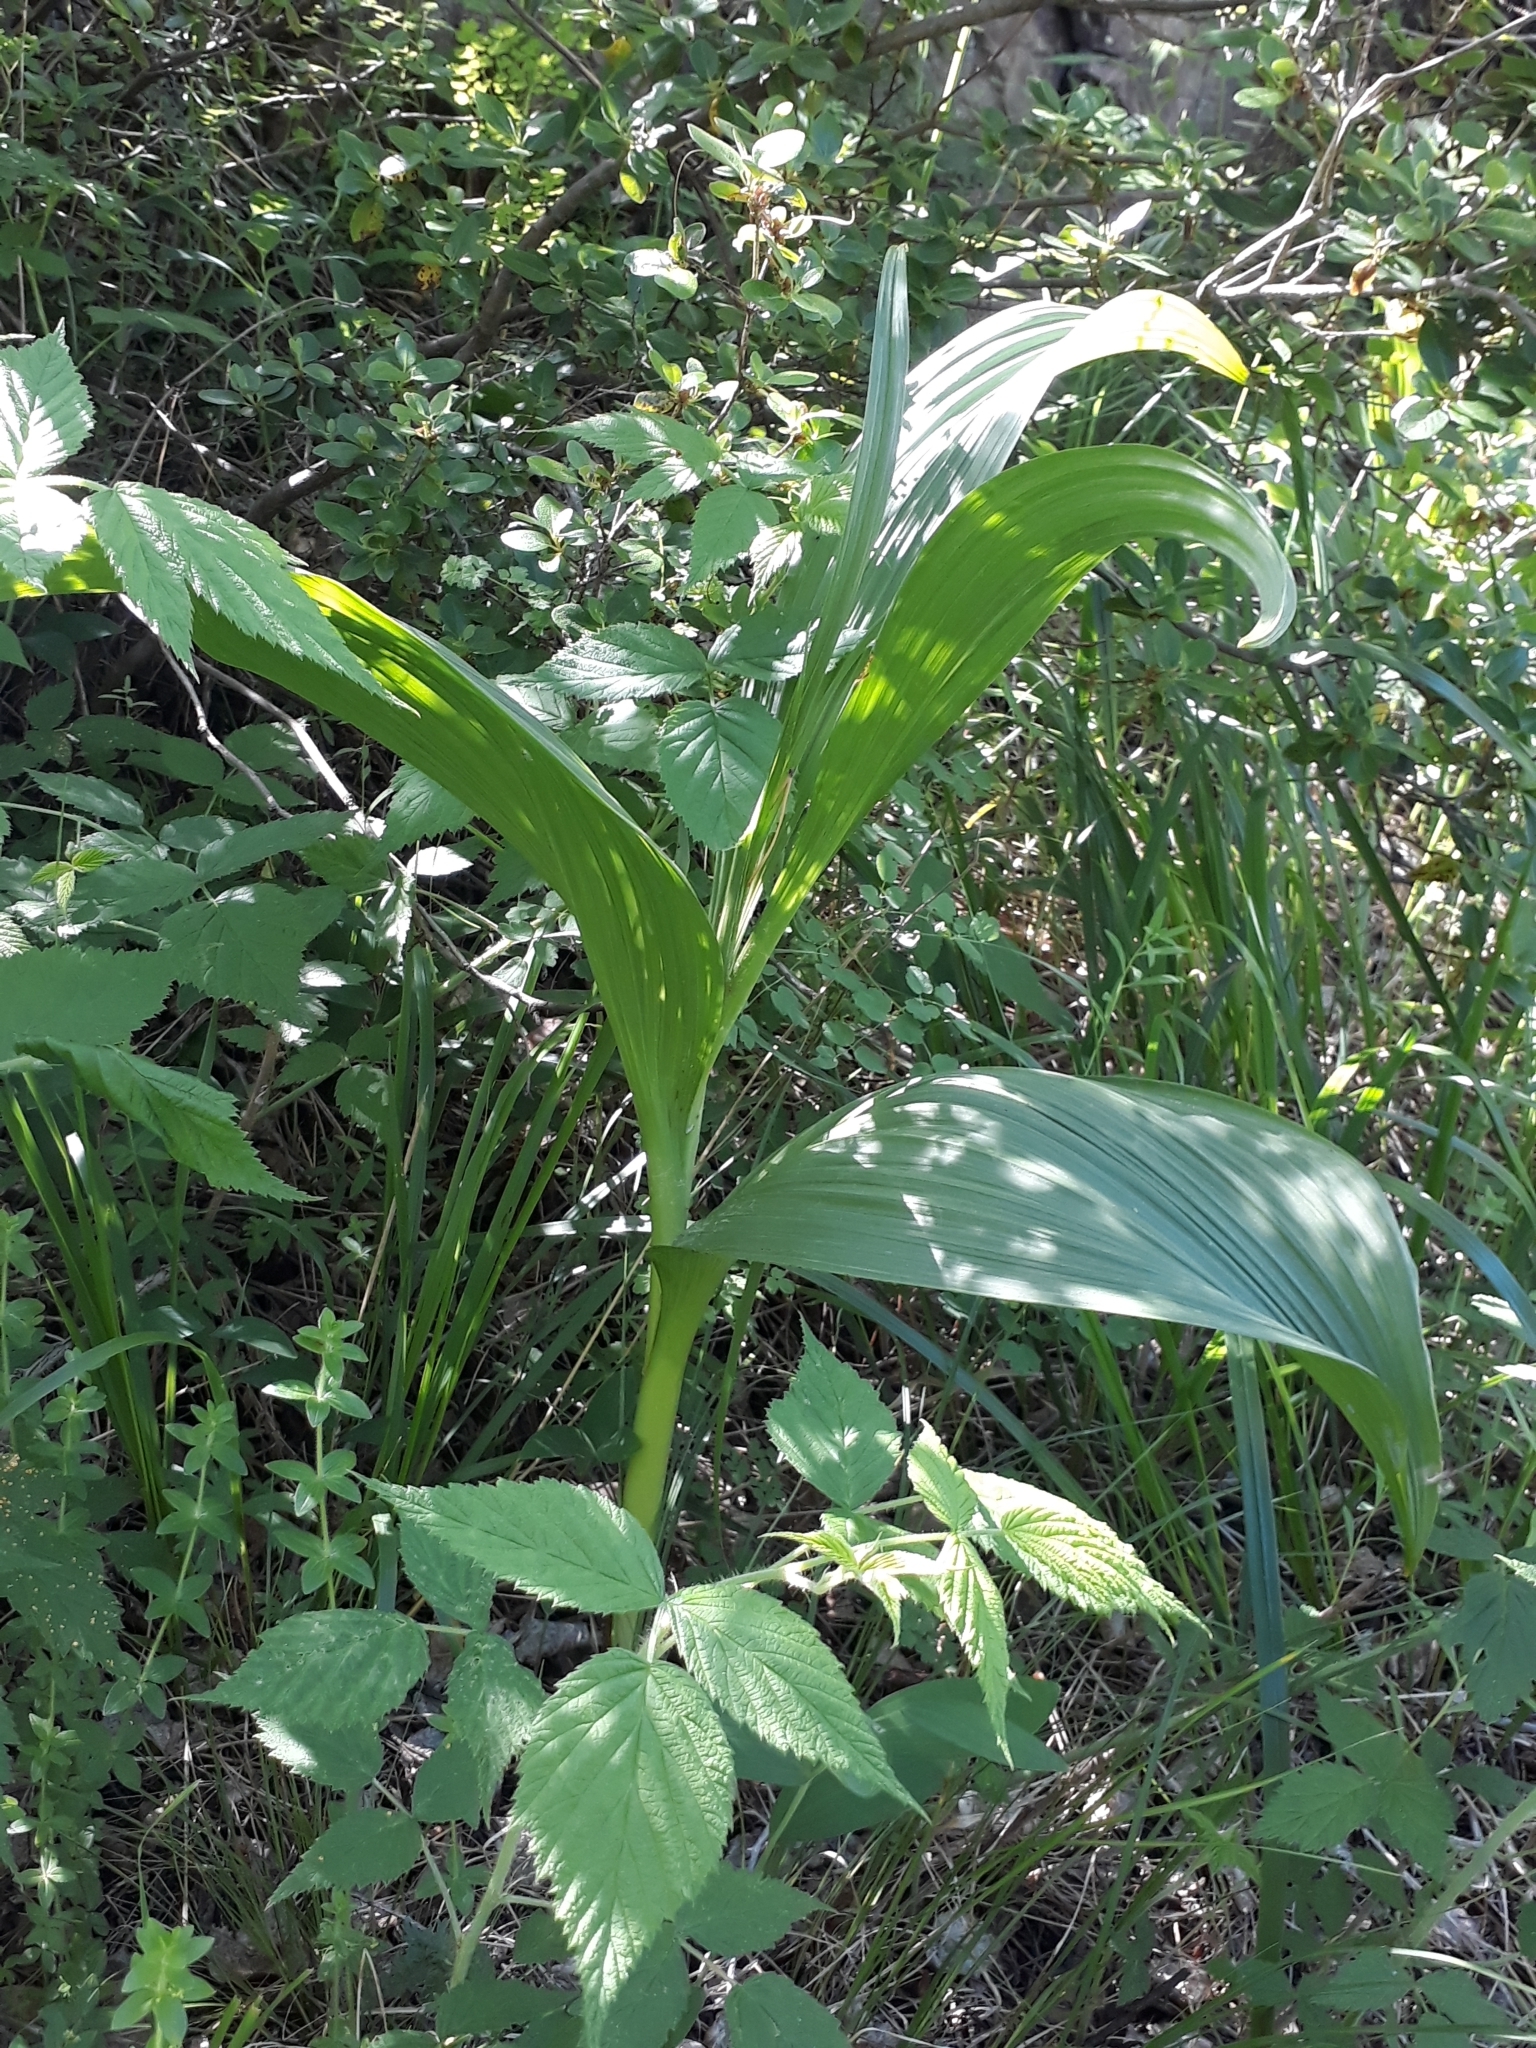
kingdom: Plantae
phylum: Tracheophyta
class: Liliopsida
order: Liliales
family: Melanthiaceae
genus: Veratrum
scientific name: Veratrum lobelianum
